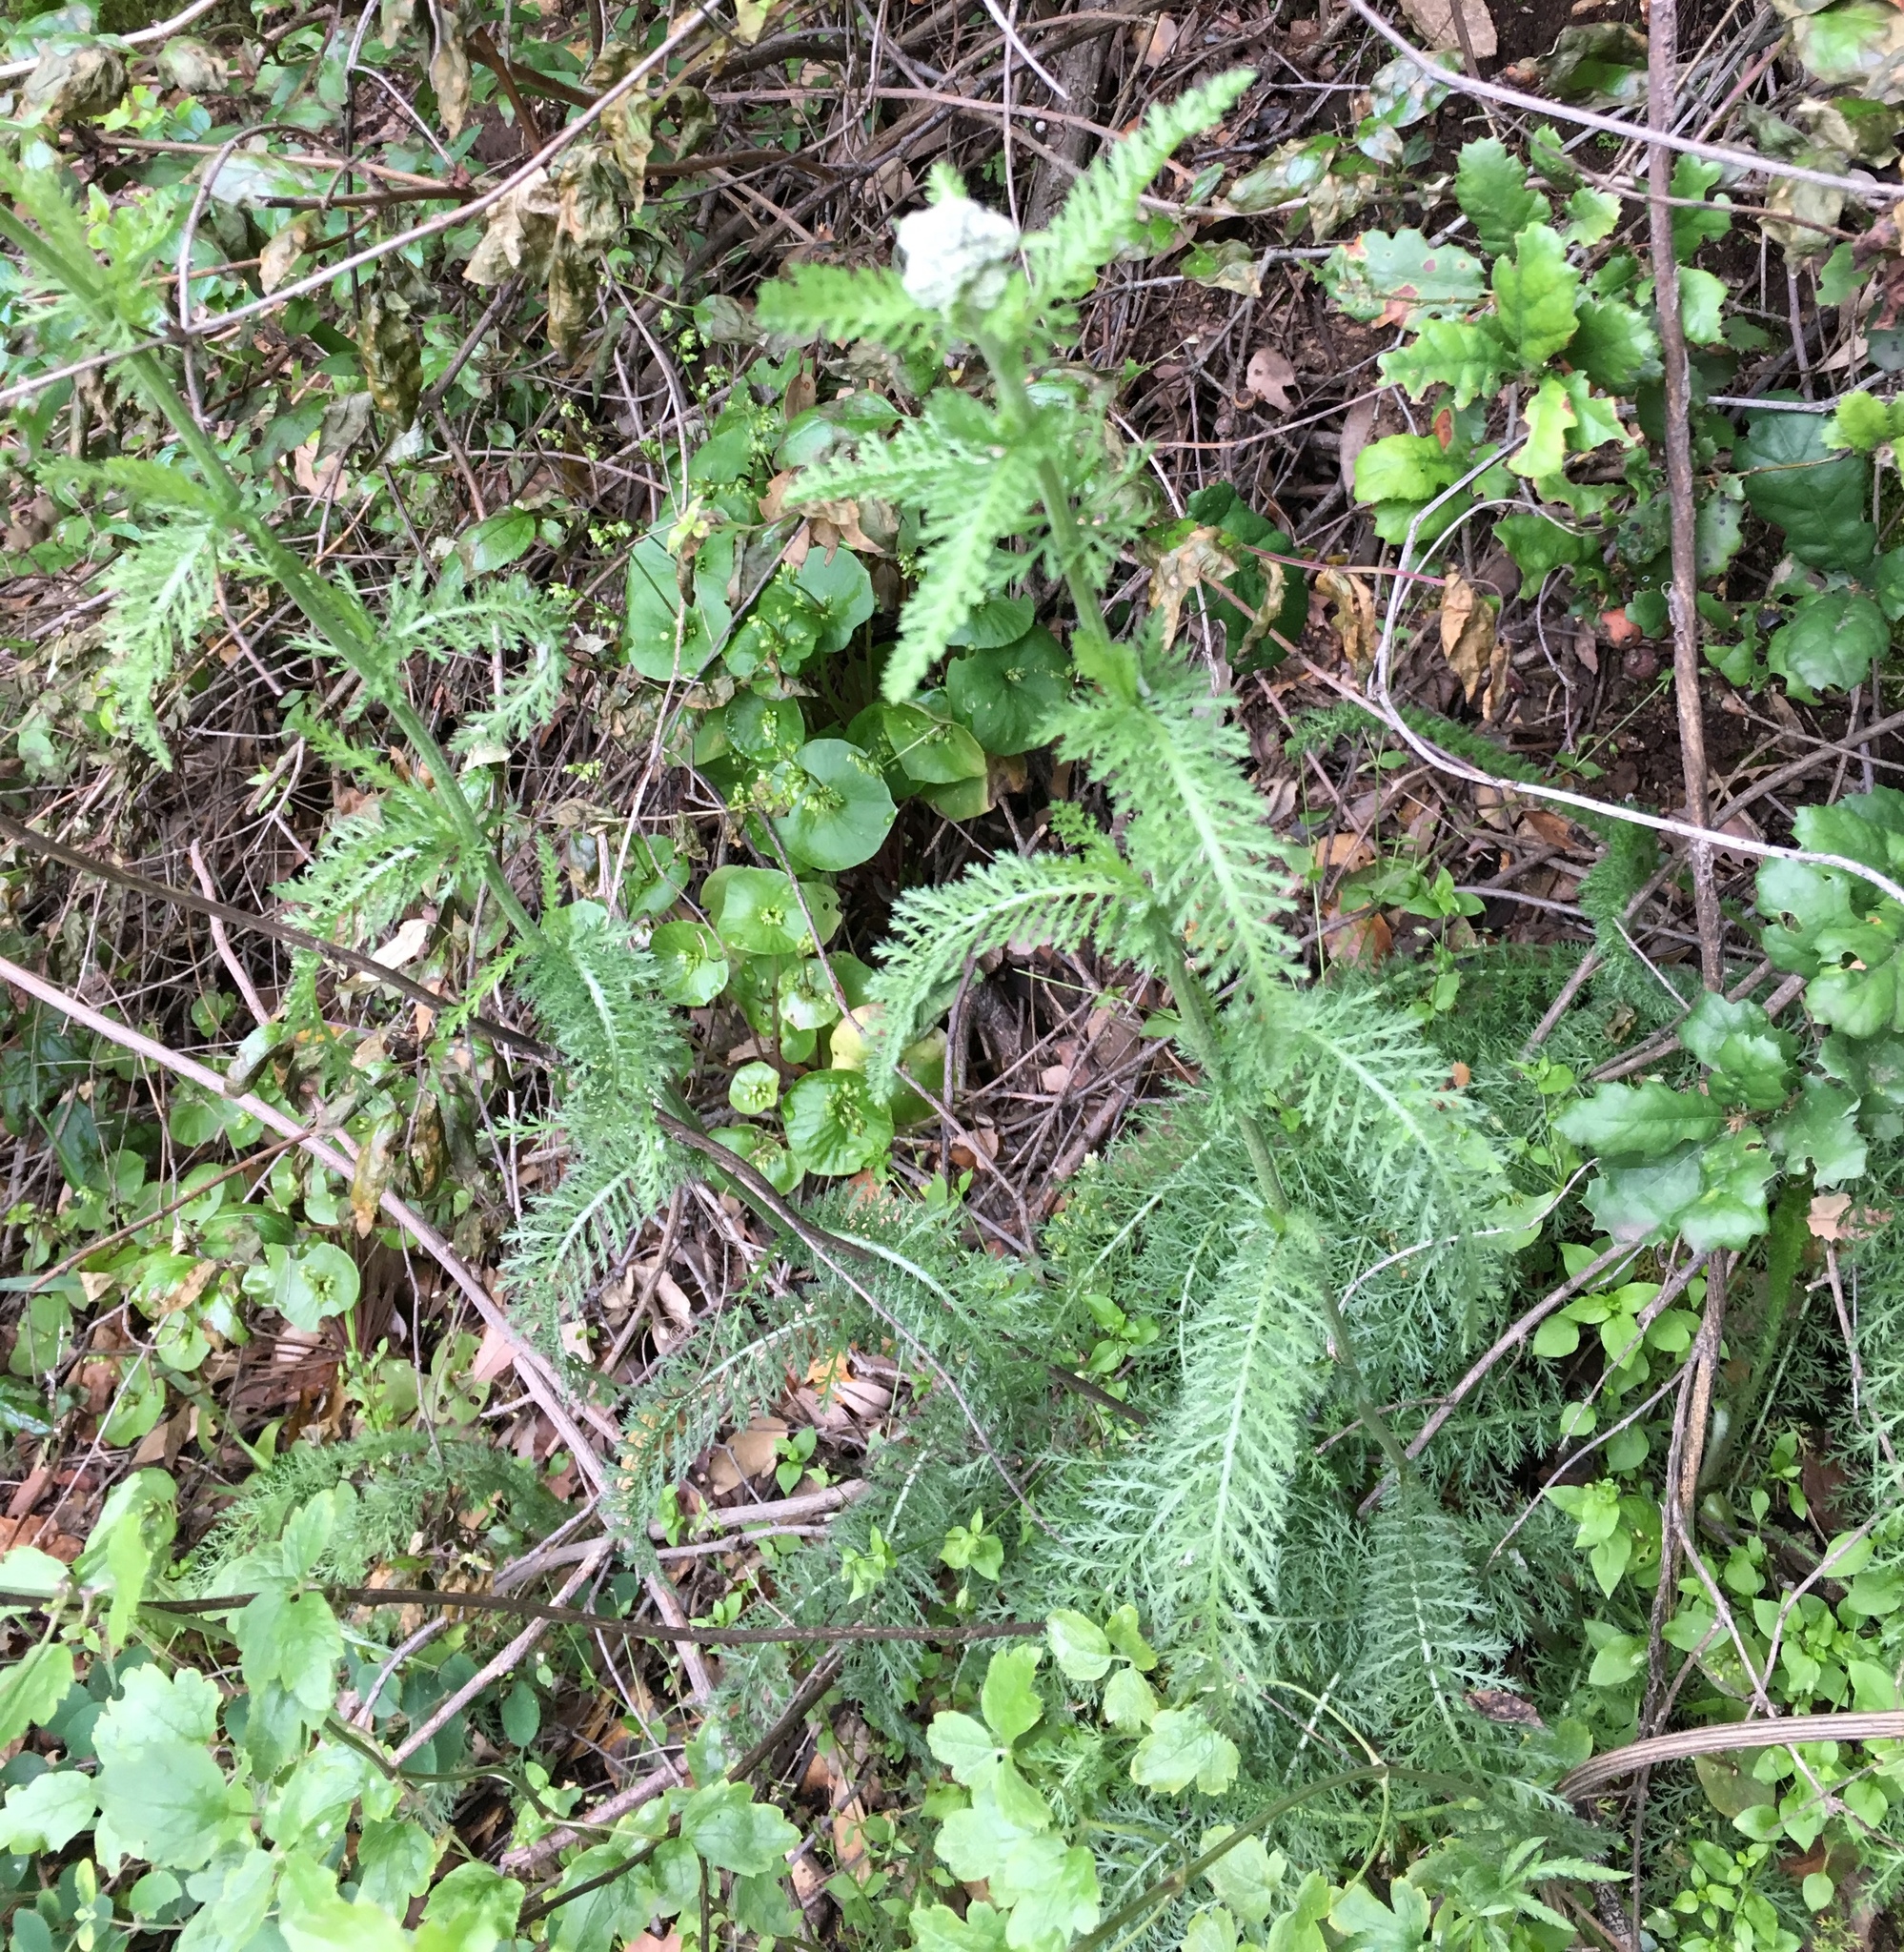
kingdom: Plantae
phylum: Tracheophyta
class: Magnoliopsida
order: Asterales
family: Asteraceae
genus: Achillea
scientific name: Achillea millefolium
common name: Yarrow
